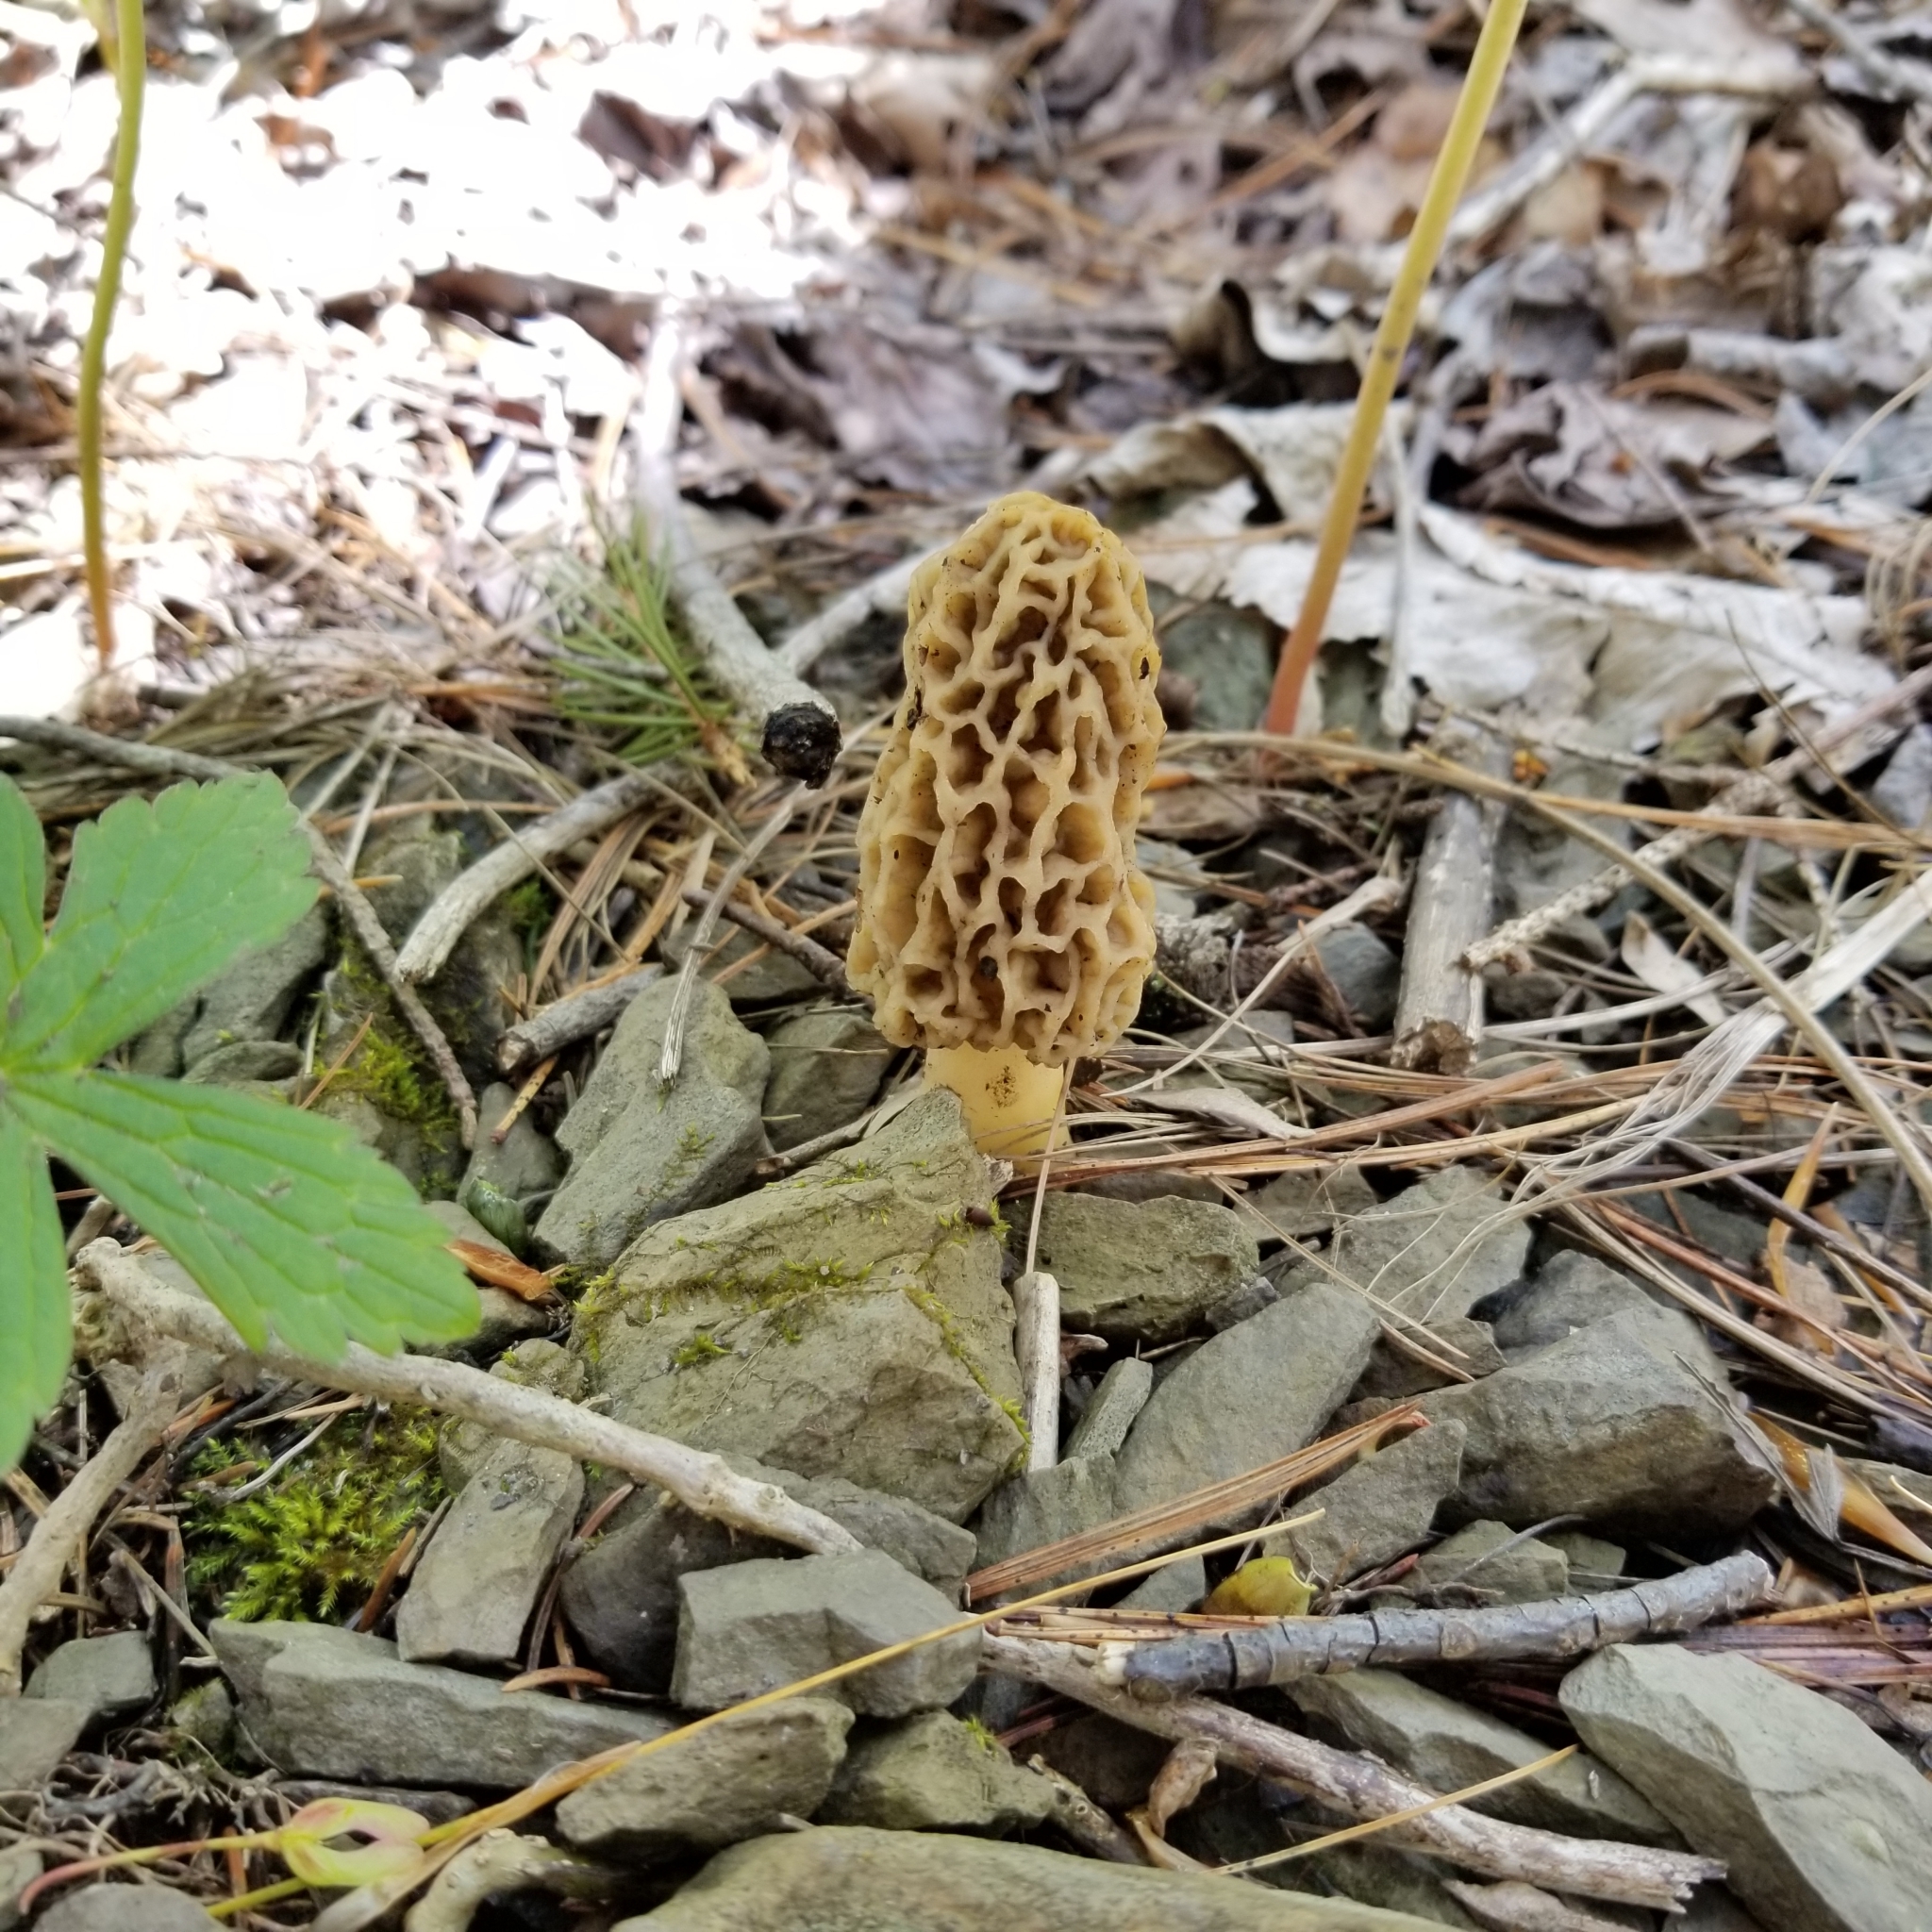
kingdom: Fungi
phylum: Ascomycota
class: Pezizomycetes
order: Pezizales
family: Morchellaceae
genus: Morchella
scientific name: Morchella americana
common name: White morel
